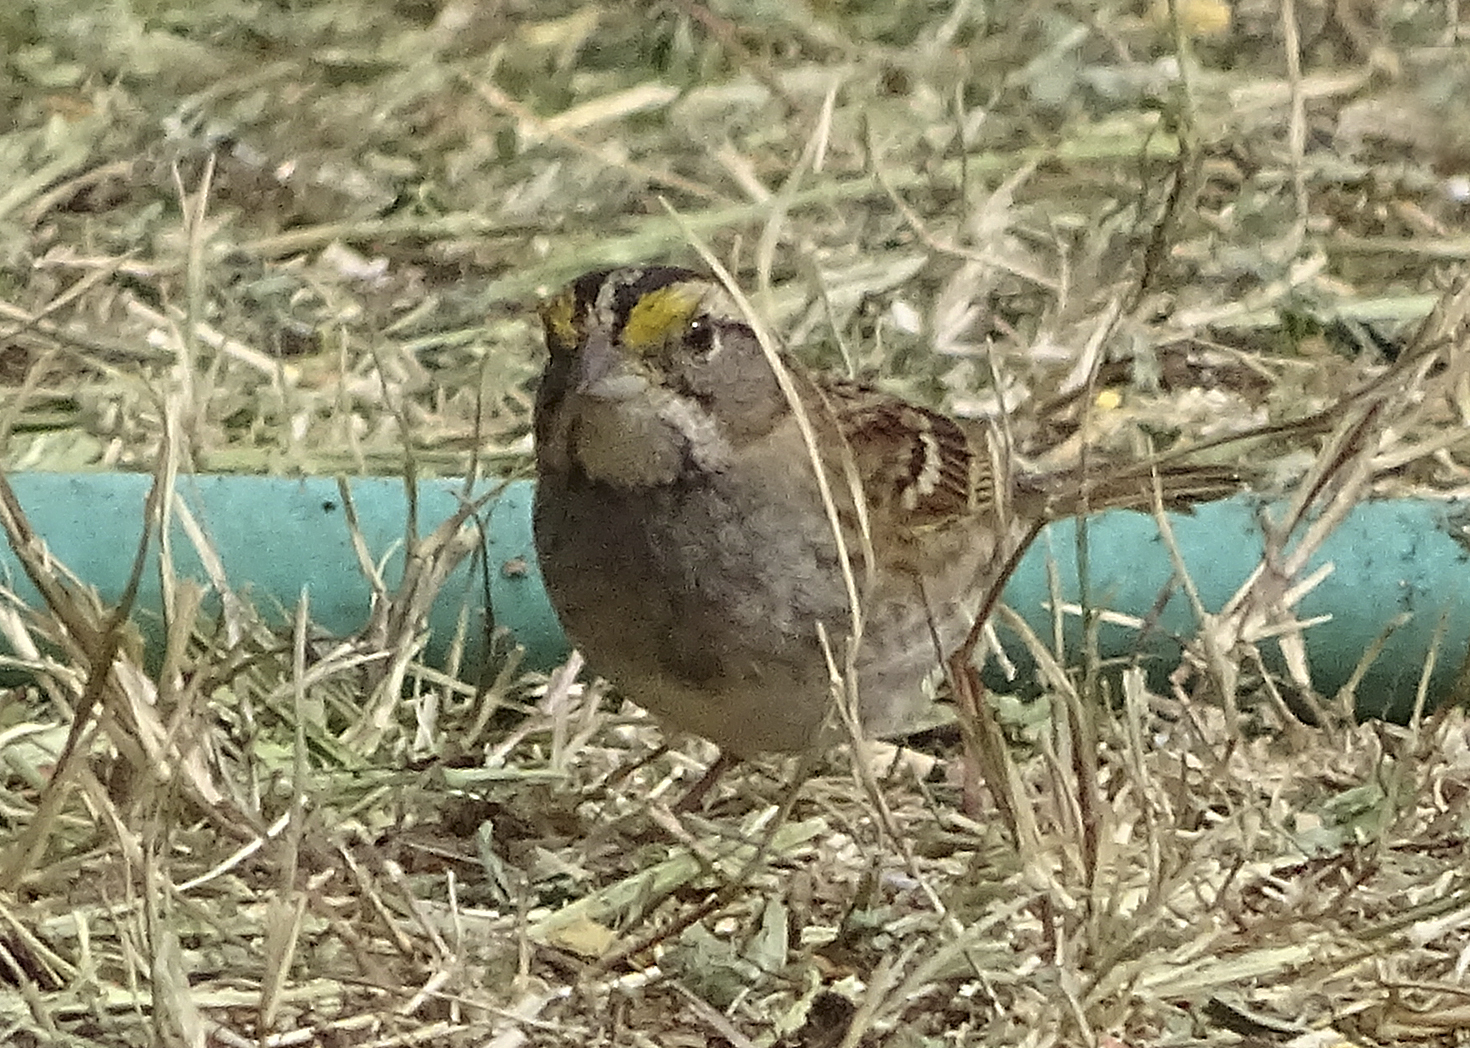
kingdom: Animalia
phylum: Chordata
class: Aves
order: Passeriformes
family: Passerellidae
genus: Zonotrichia
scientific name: Zonotrichia albicollis
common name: White-throated sparrow
